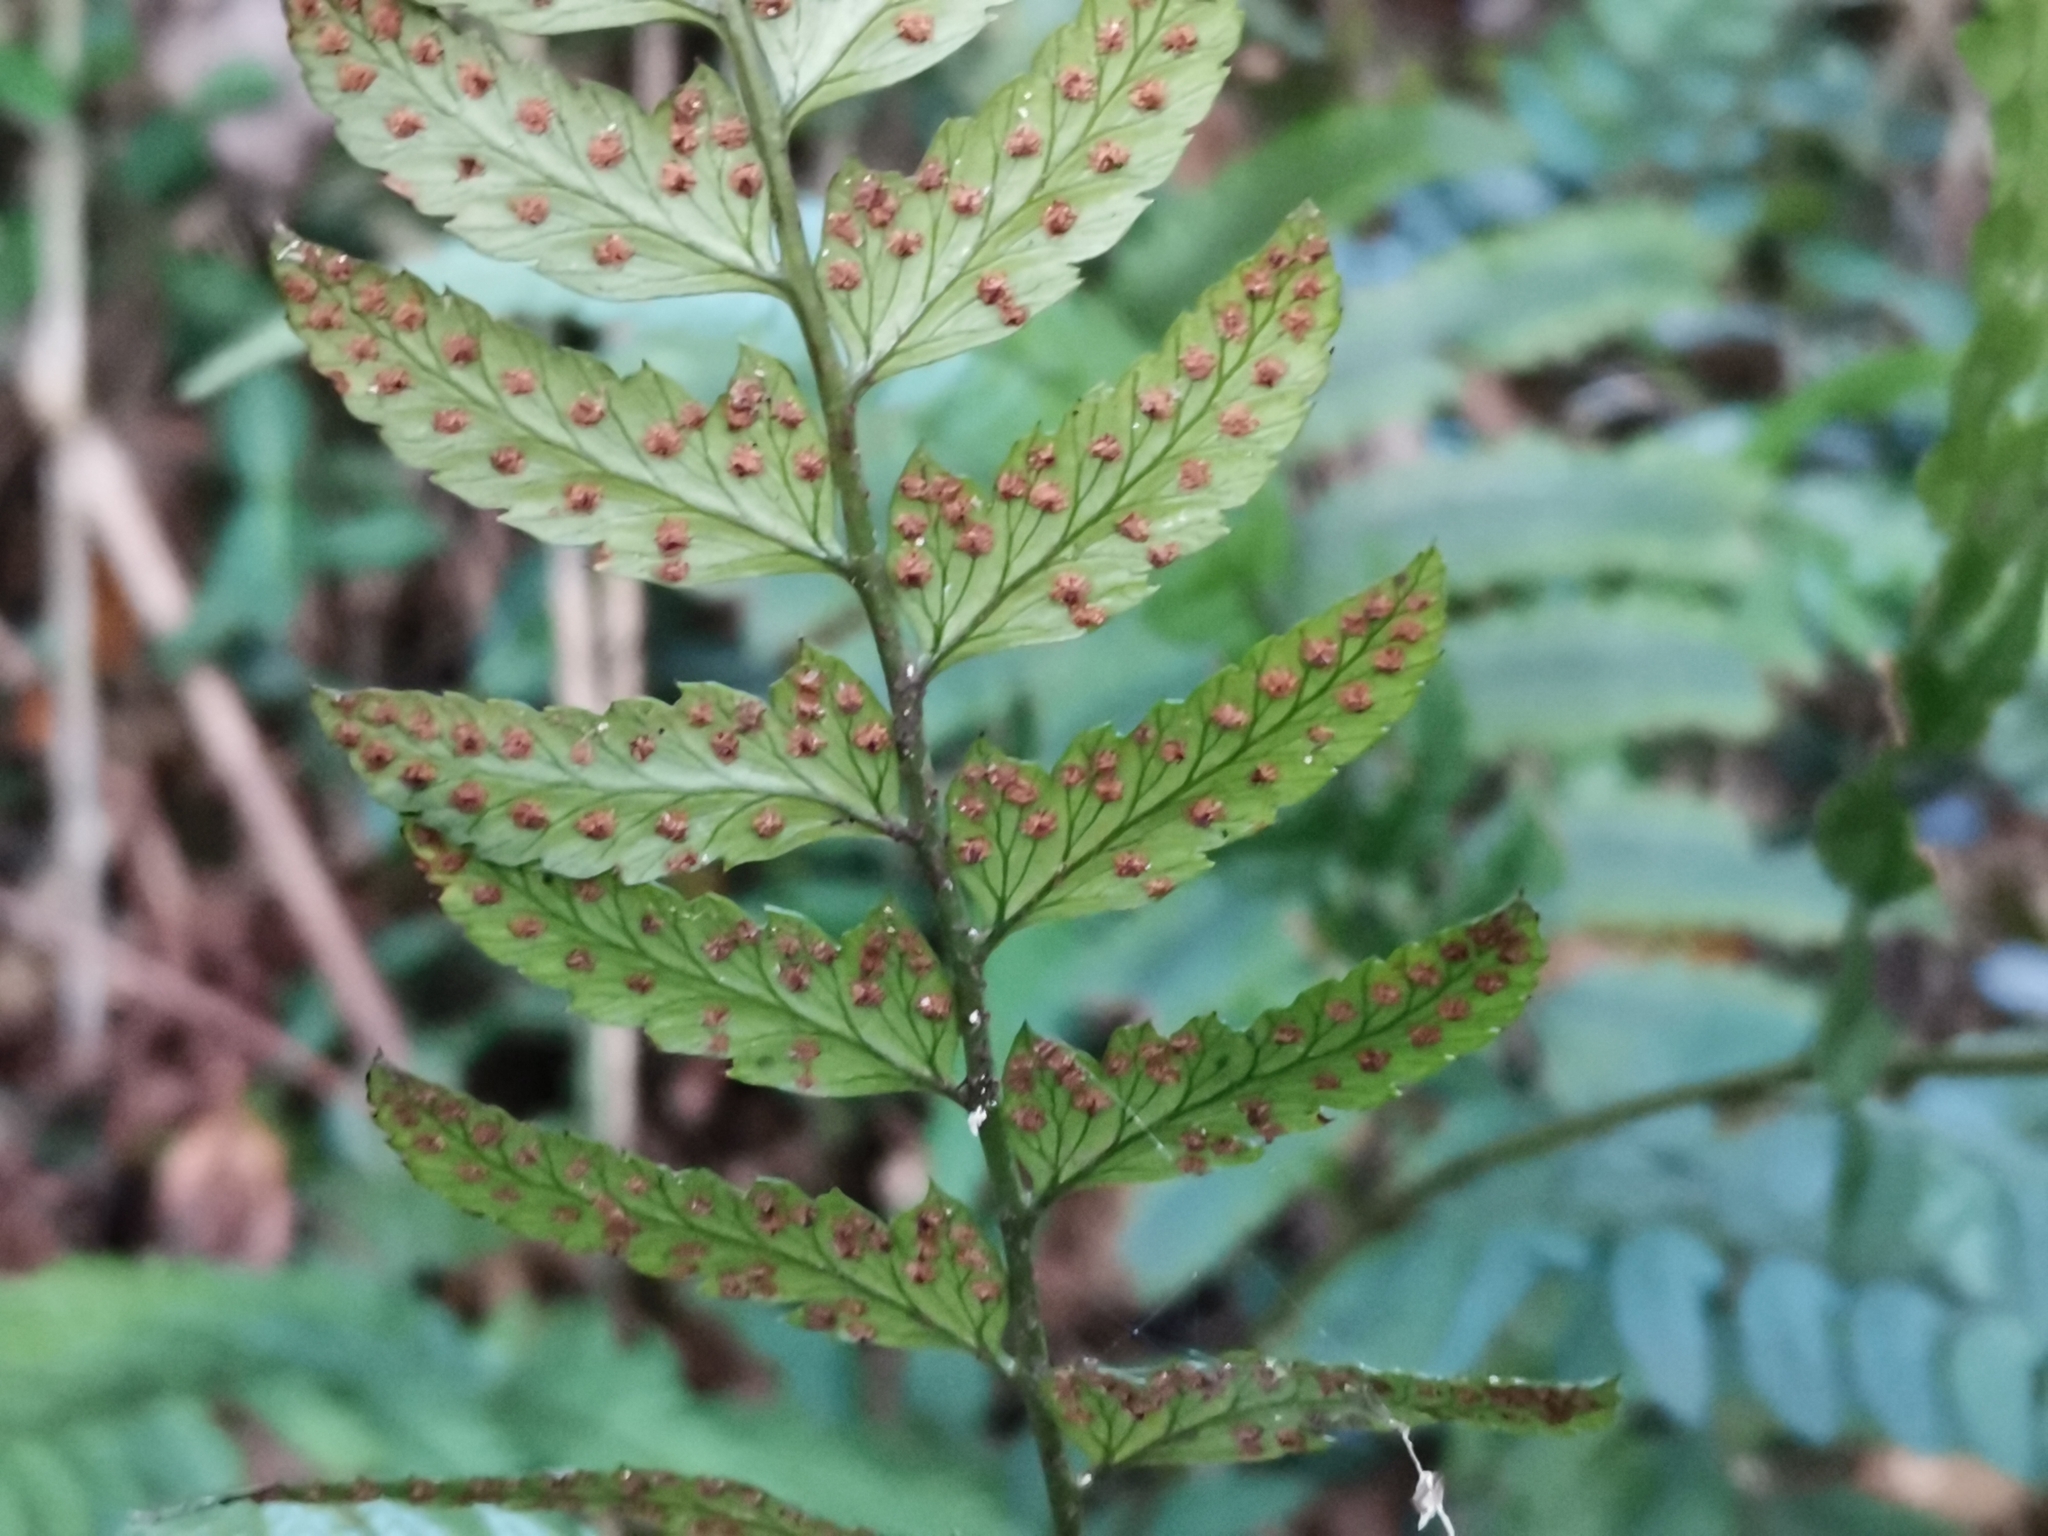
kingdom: Plantae
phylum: Tracheophyta
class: Polypodiopsida
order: Polypodiales
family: Dryopteridaceae
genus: Arachniodes
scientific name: Arachniodes chinensis
